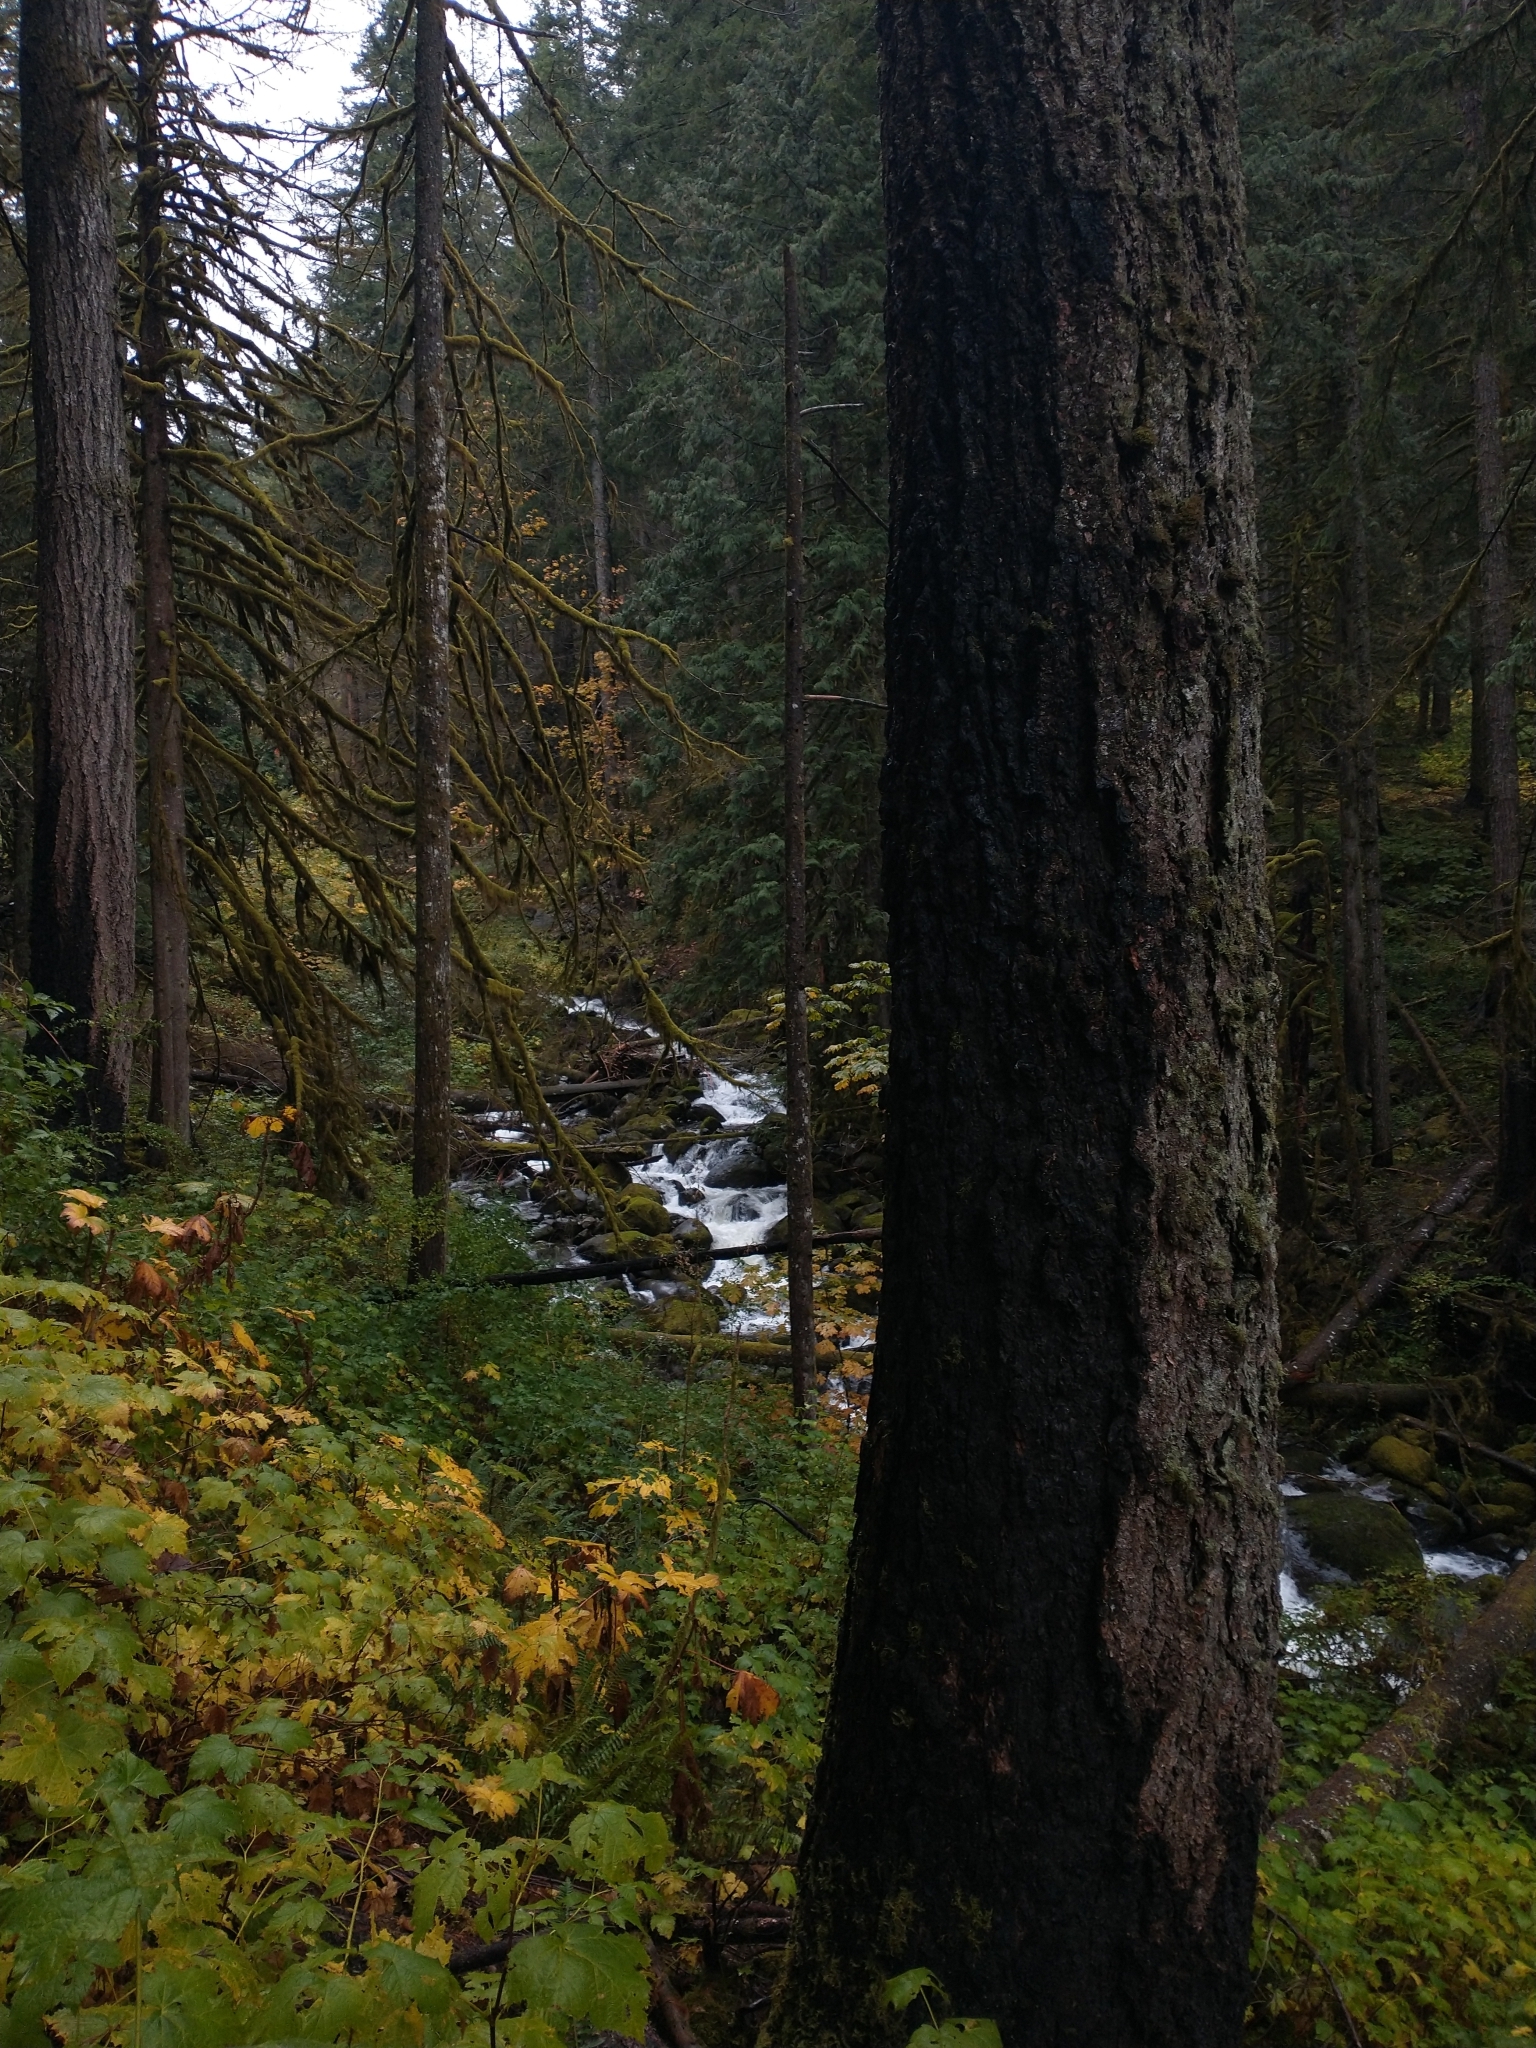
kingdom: Plantae
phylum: Tracheophyta
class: Pinopsida
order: Pinales
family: Pinaceae
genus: Pseudotsuga
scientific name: Pseudotsuga menziesii
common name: Douglas fir
